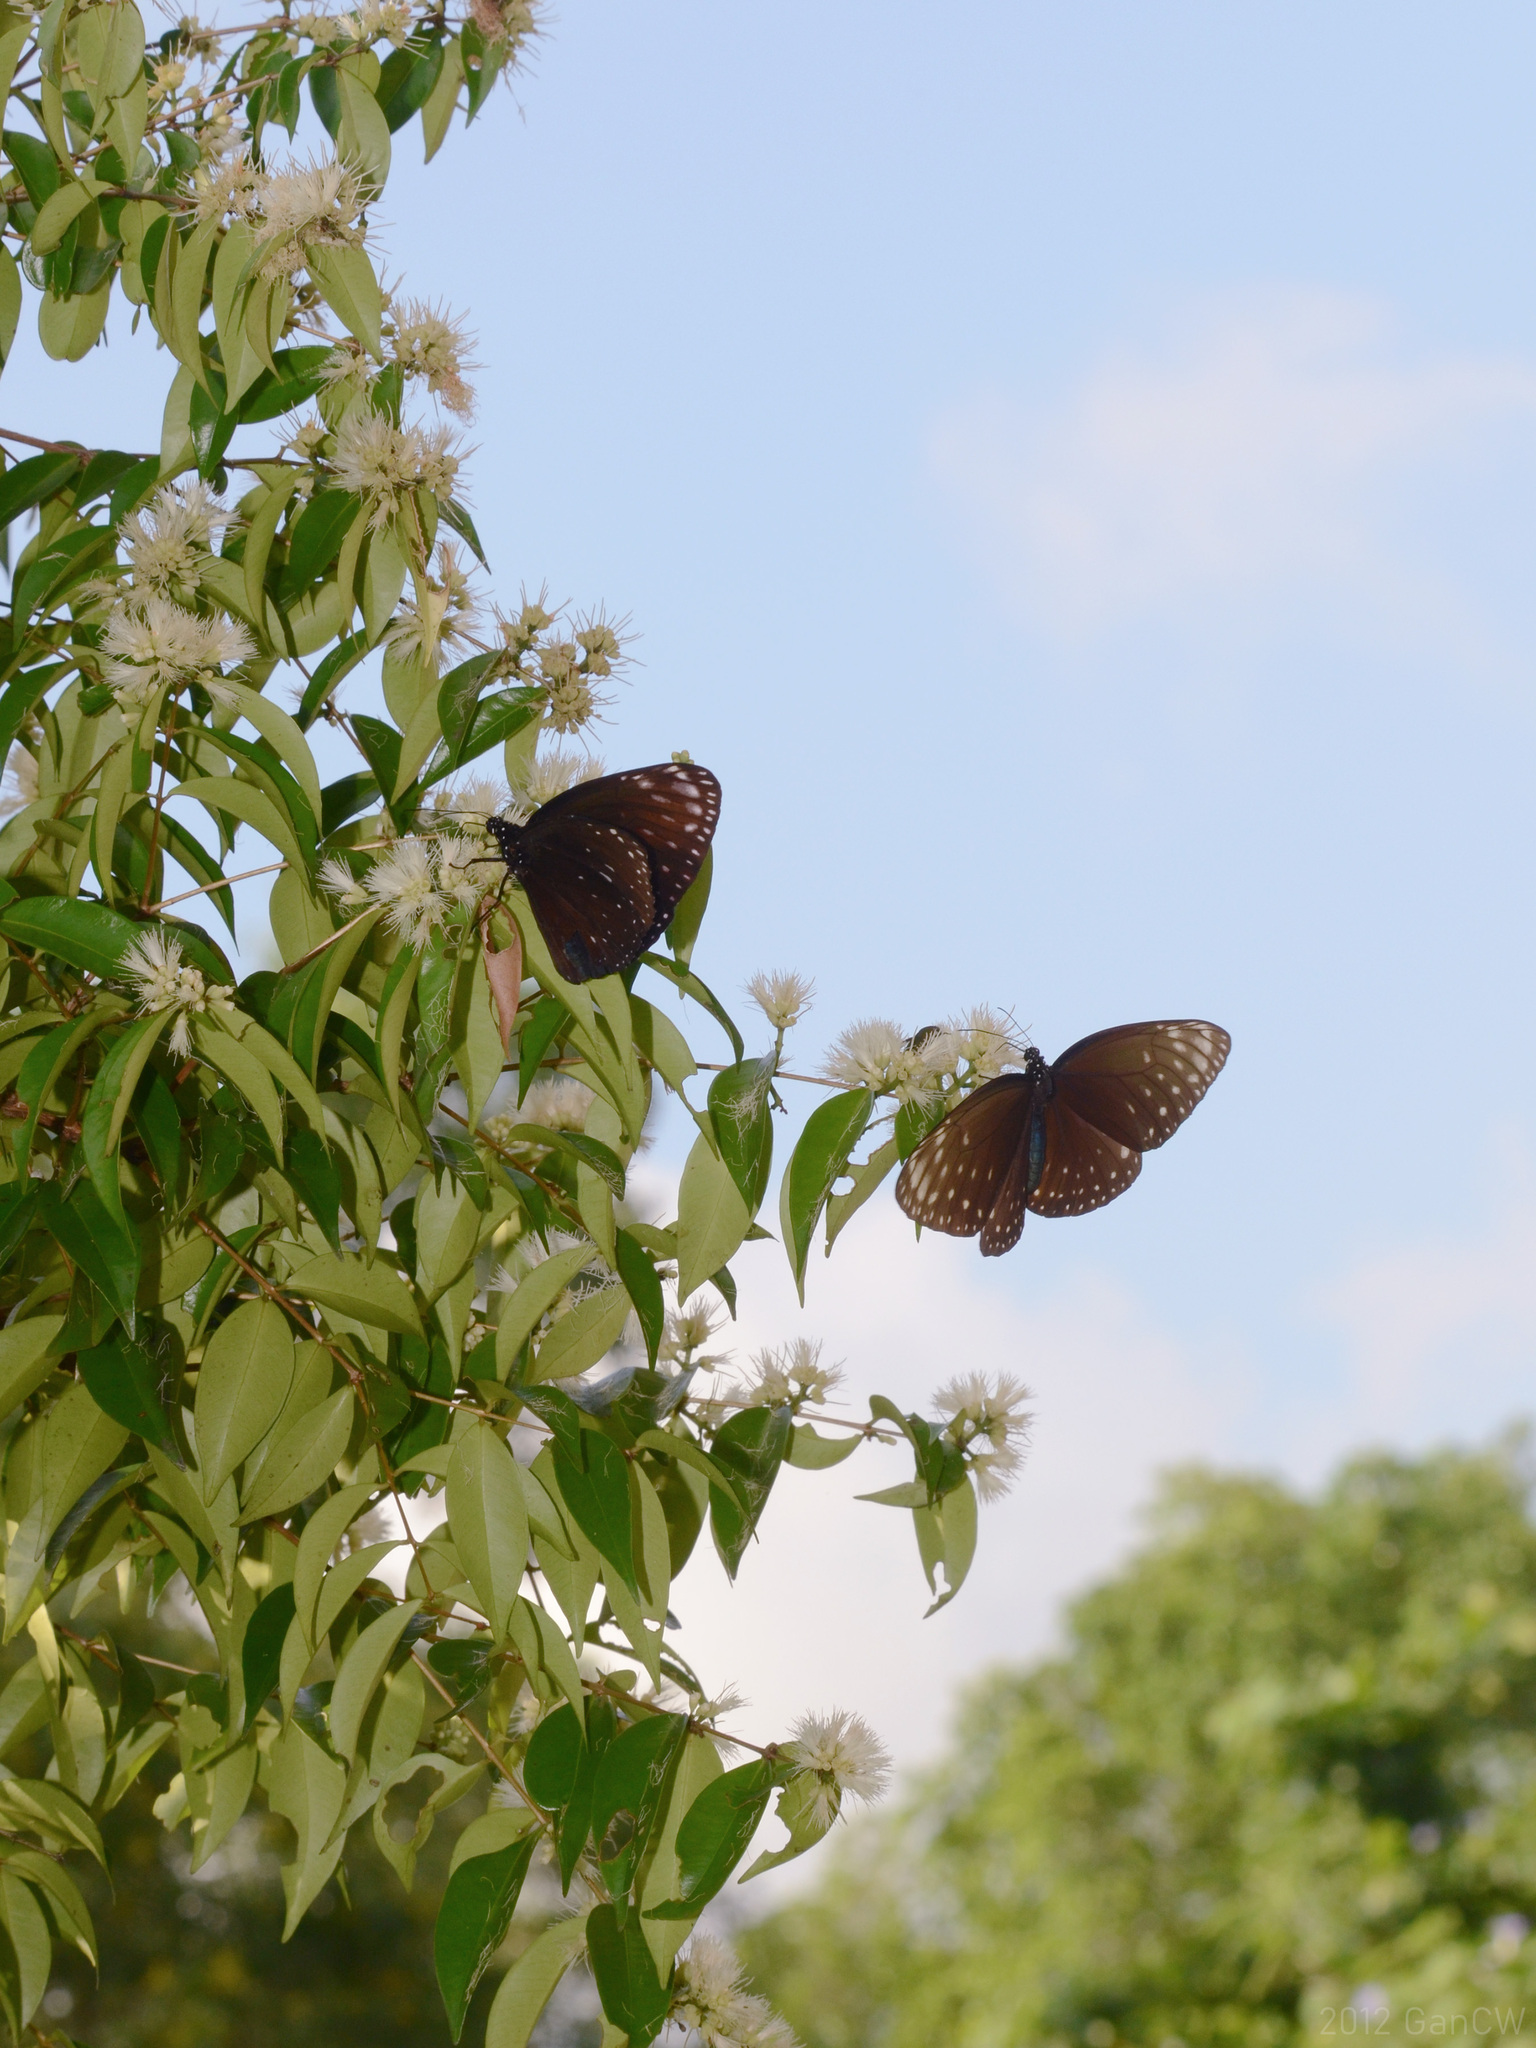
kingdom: Animalia
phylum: Arthropoda
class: Insecta
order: Lepidoptera
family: Nymphalidae
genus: Euploea
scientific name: Euploea phaenareta
